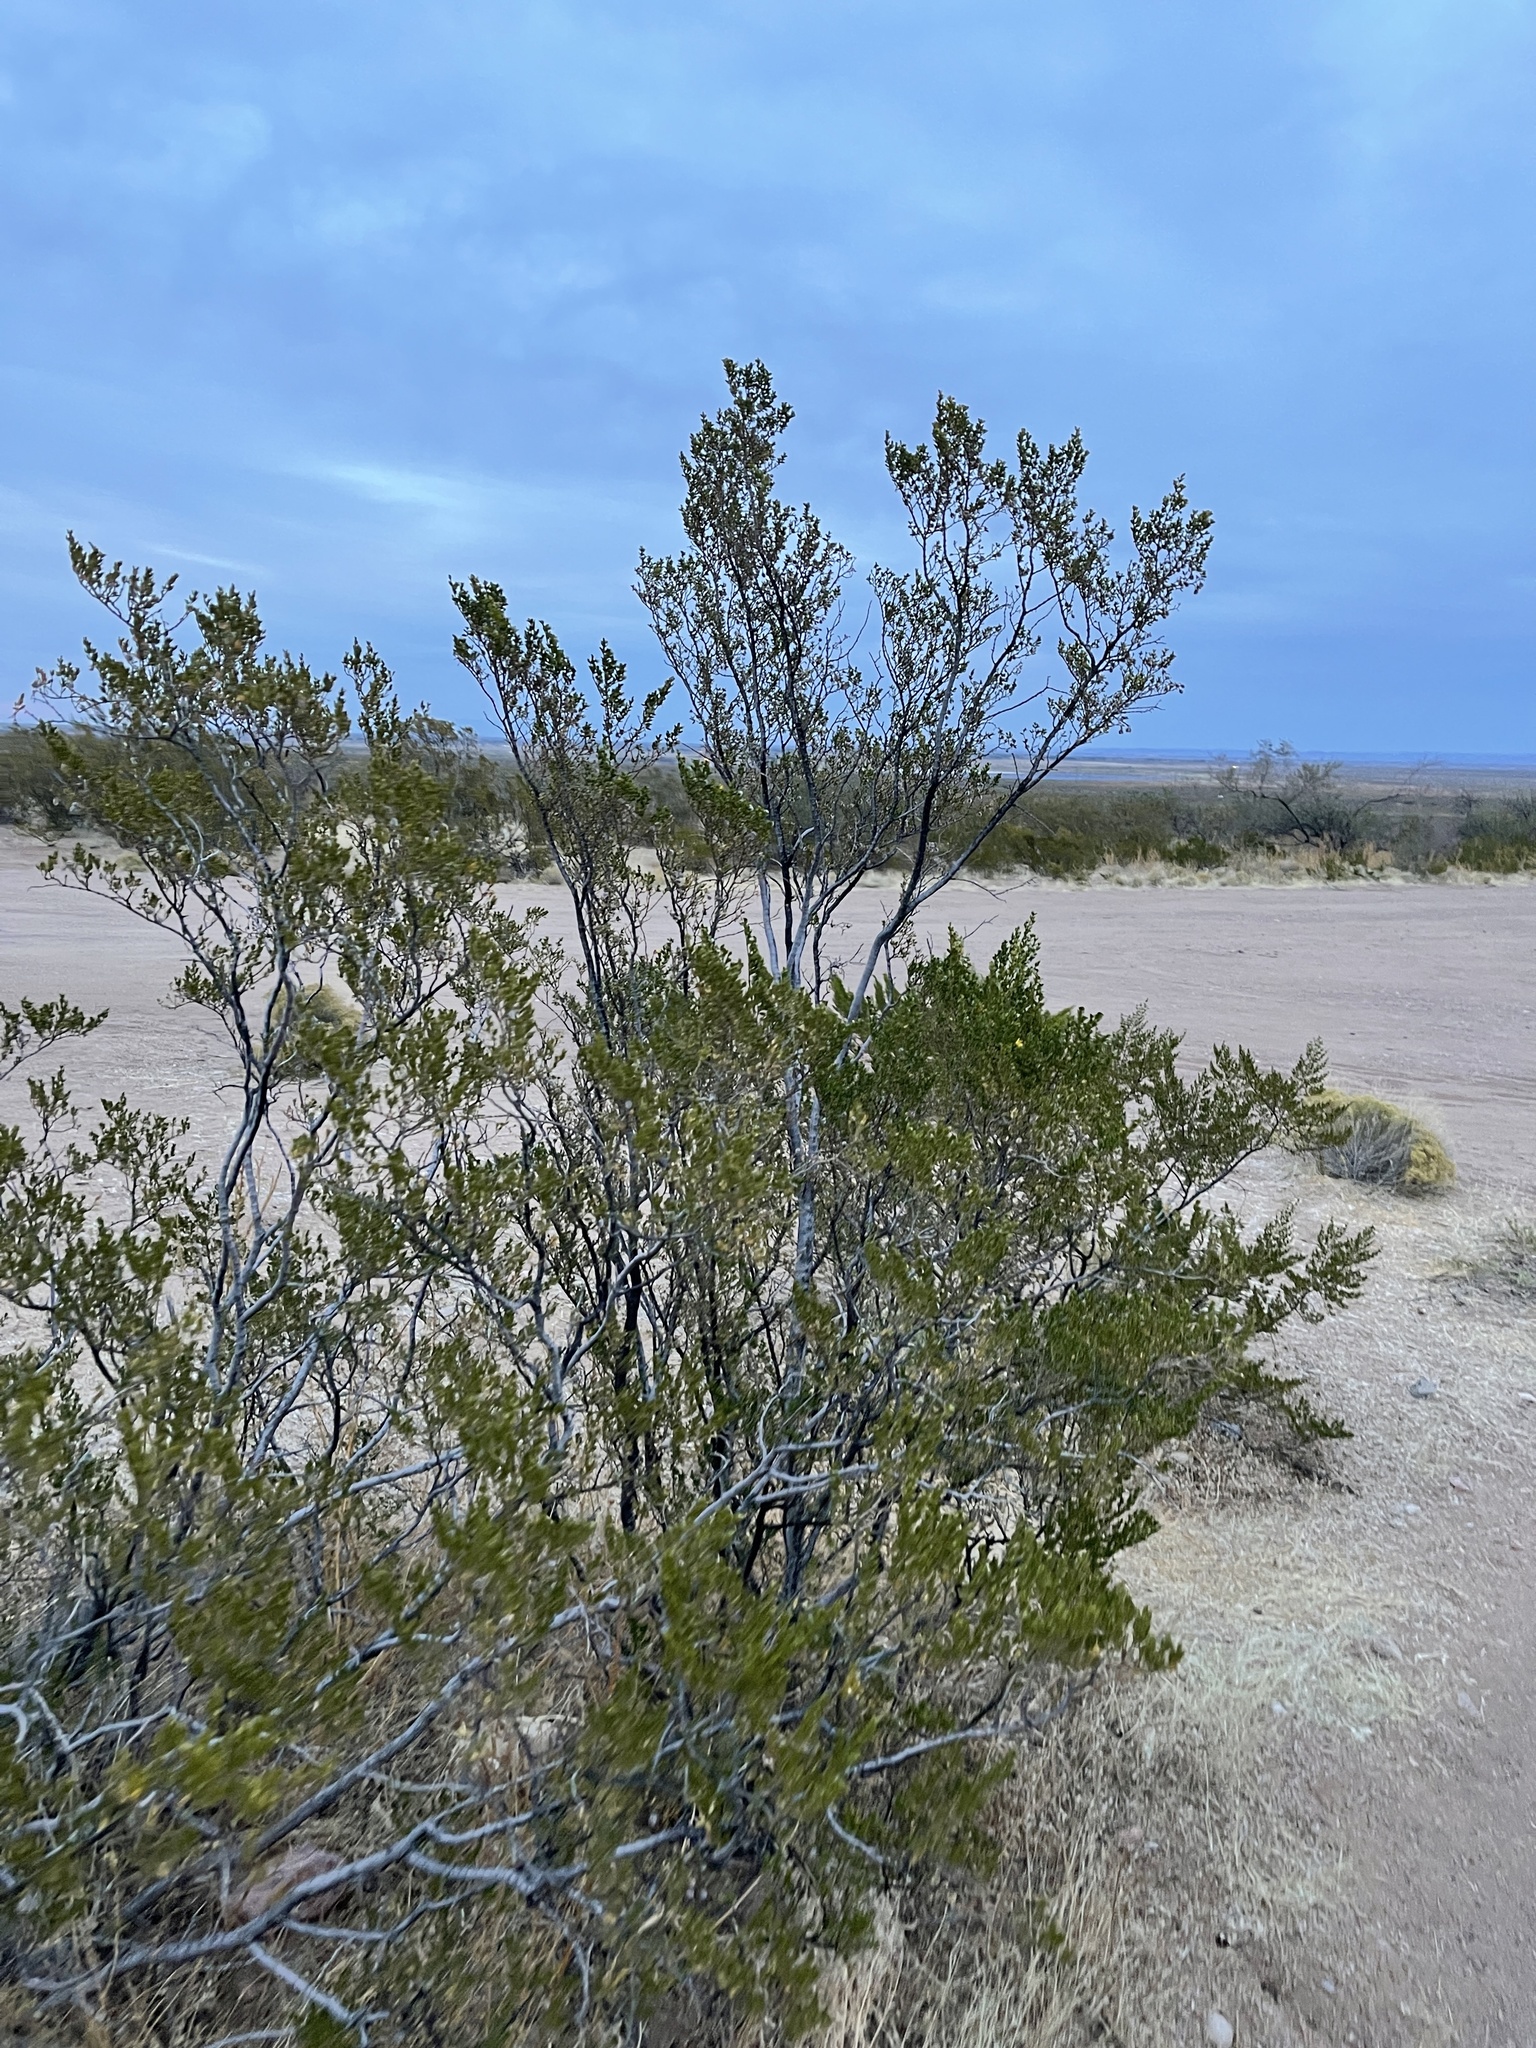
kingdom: Plantae
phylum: Tracheophyta
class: Magnoliopsida
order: Zygophyllales
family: Zygophyllaceae
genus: Larrea
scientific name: Larrea tridentata
